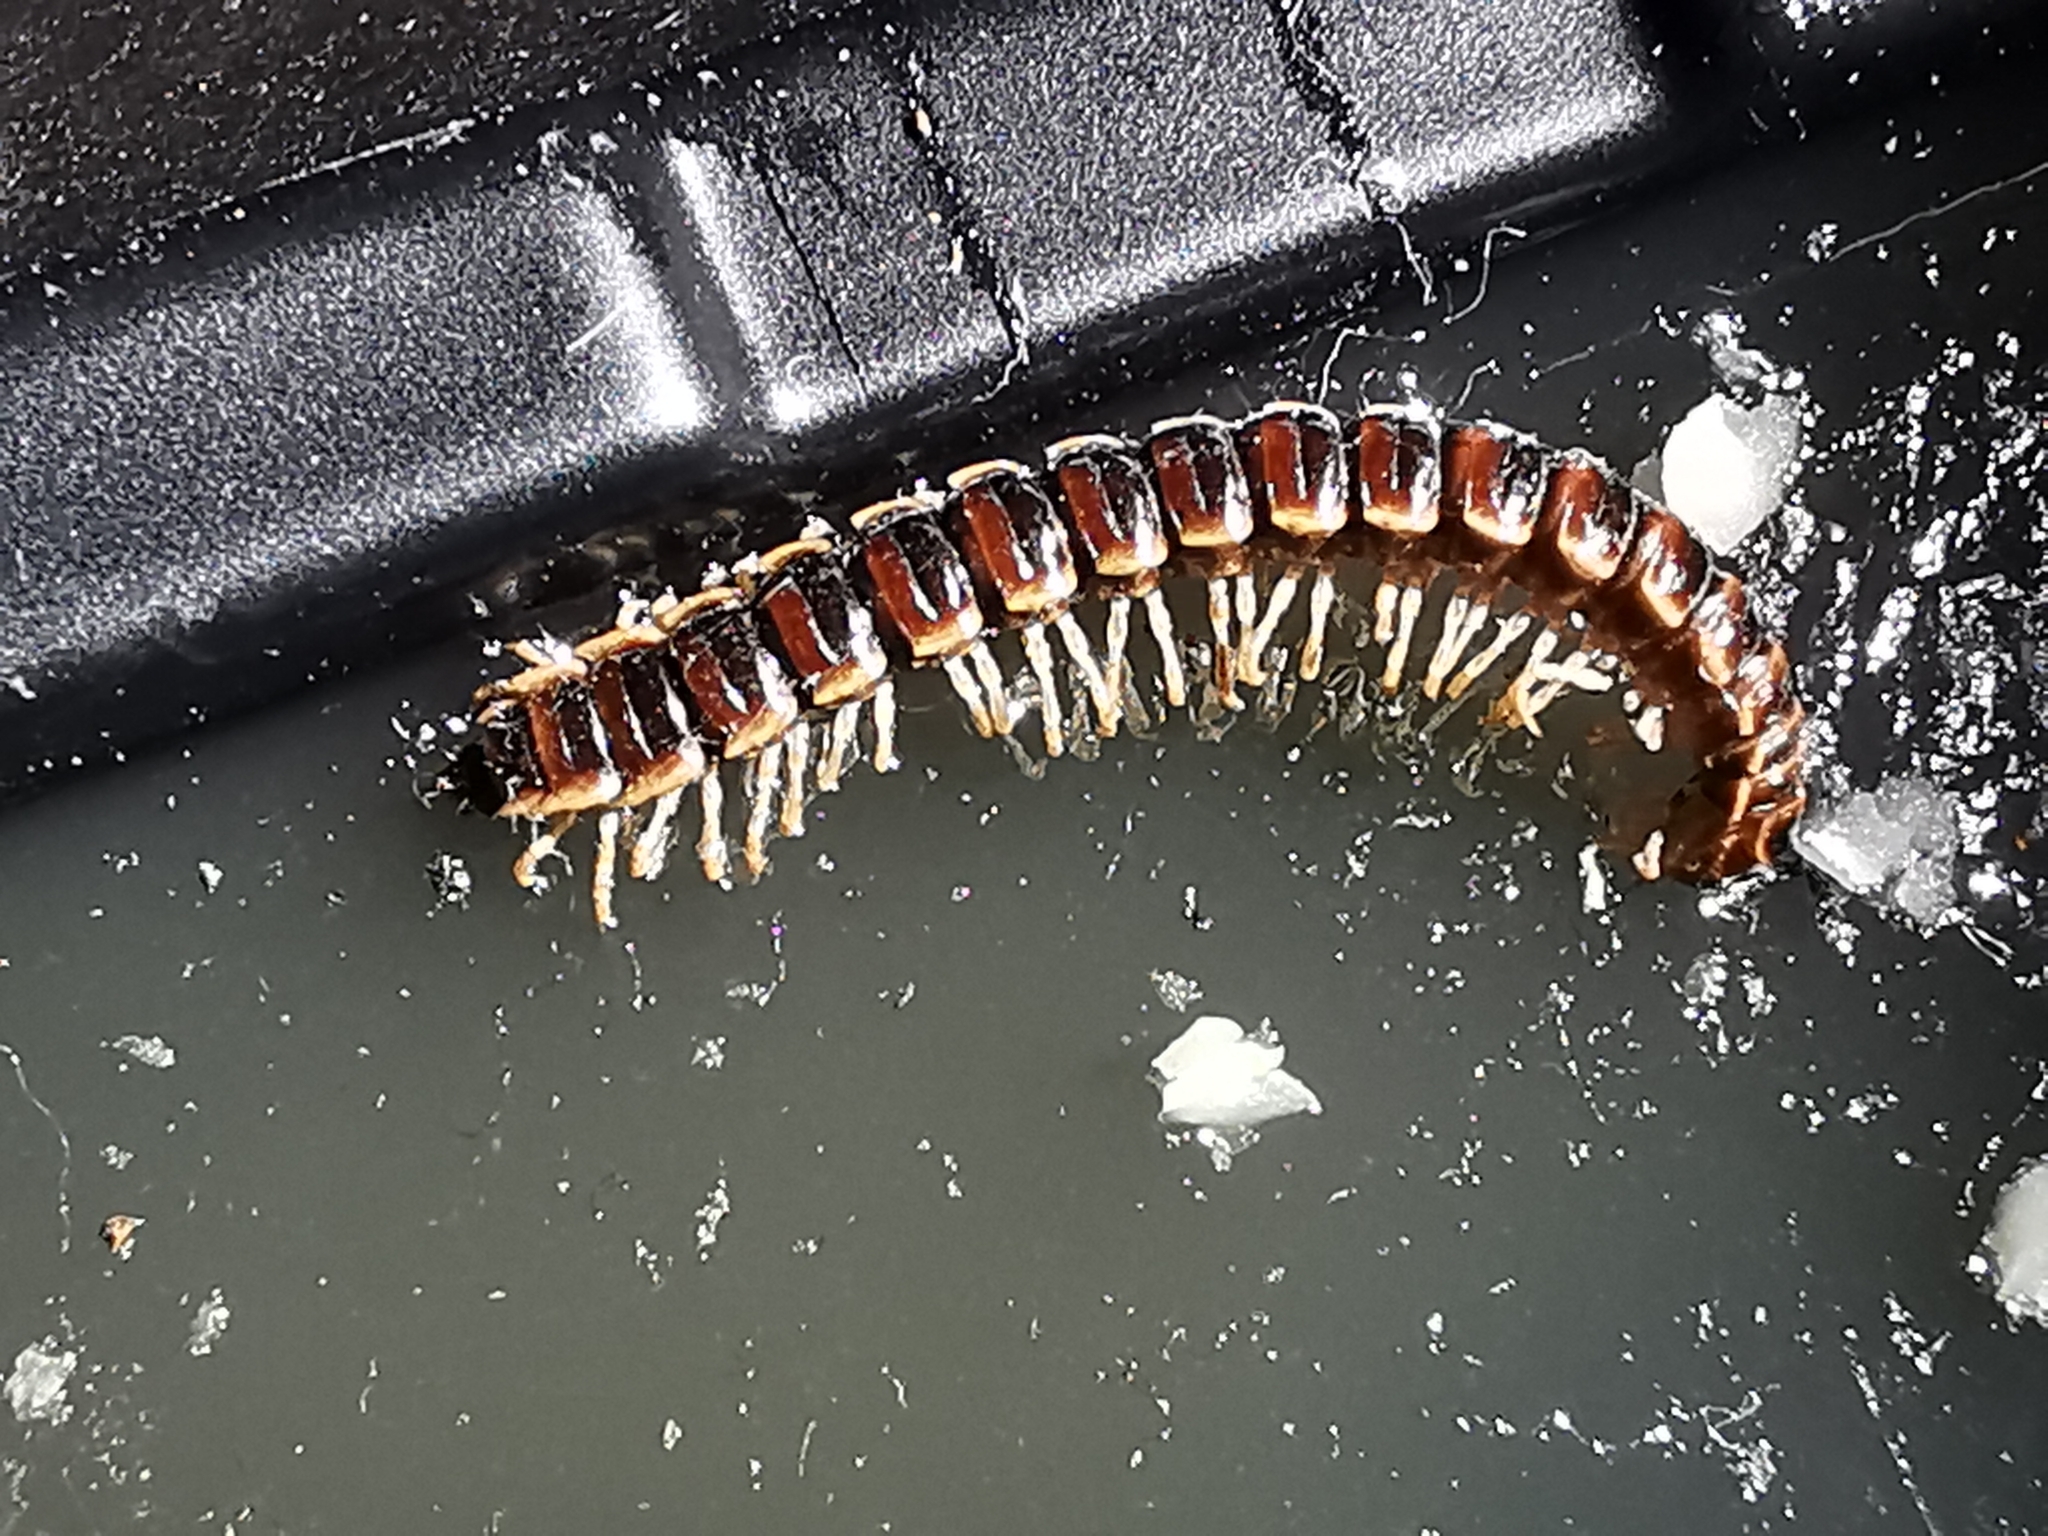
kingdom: Animalia
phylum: Arthropoda
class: Diplopoda
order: Polydesmida
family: Paradoxosomatidae
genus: Oxidus
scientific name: Oxidus gracilis
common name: Greenhouse millipede
